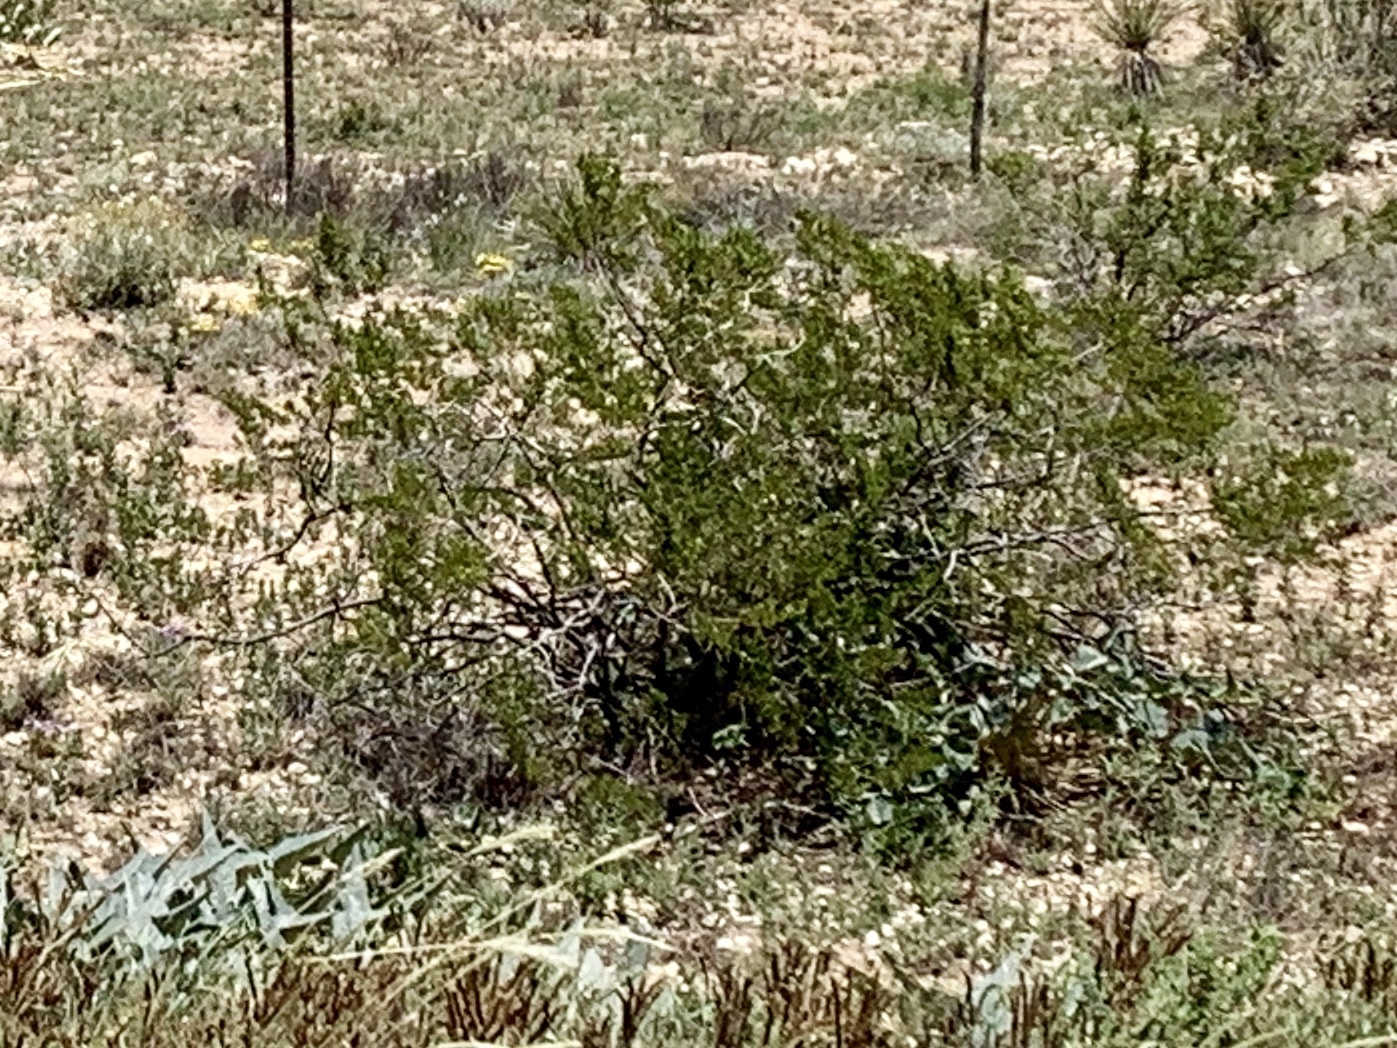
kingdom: Plantae
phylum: Tracheophyta
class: Magnoliopsida
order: Zygophyllales
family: Zygophyllaceae
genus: Larrea
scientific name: Larrea tridentata
